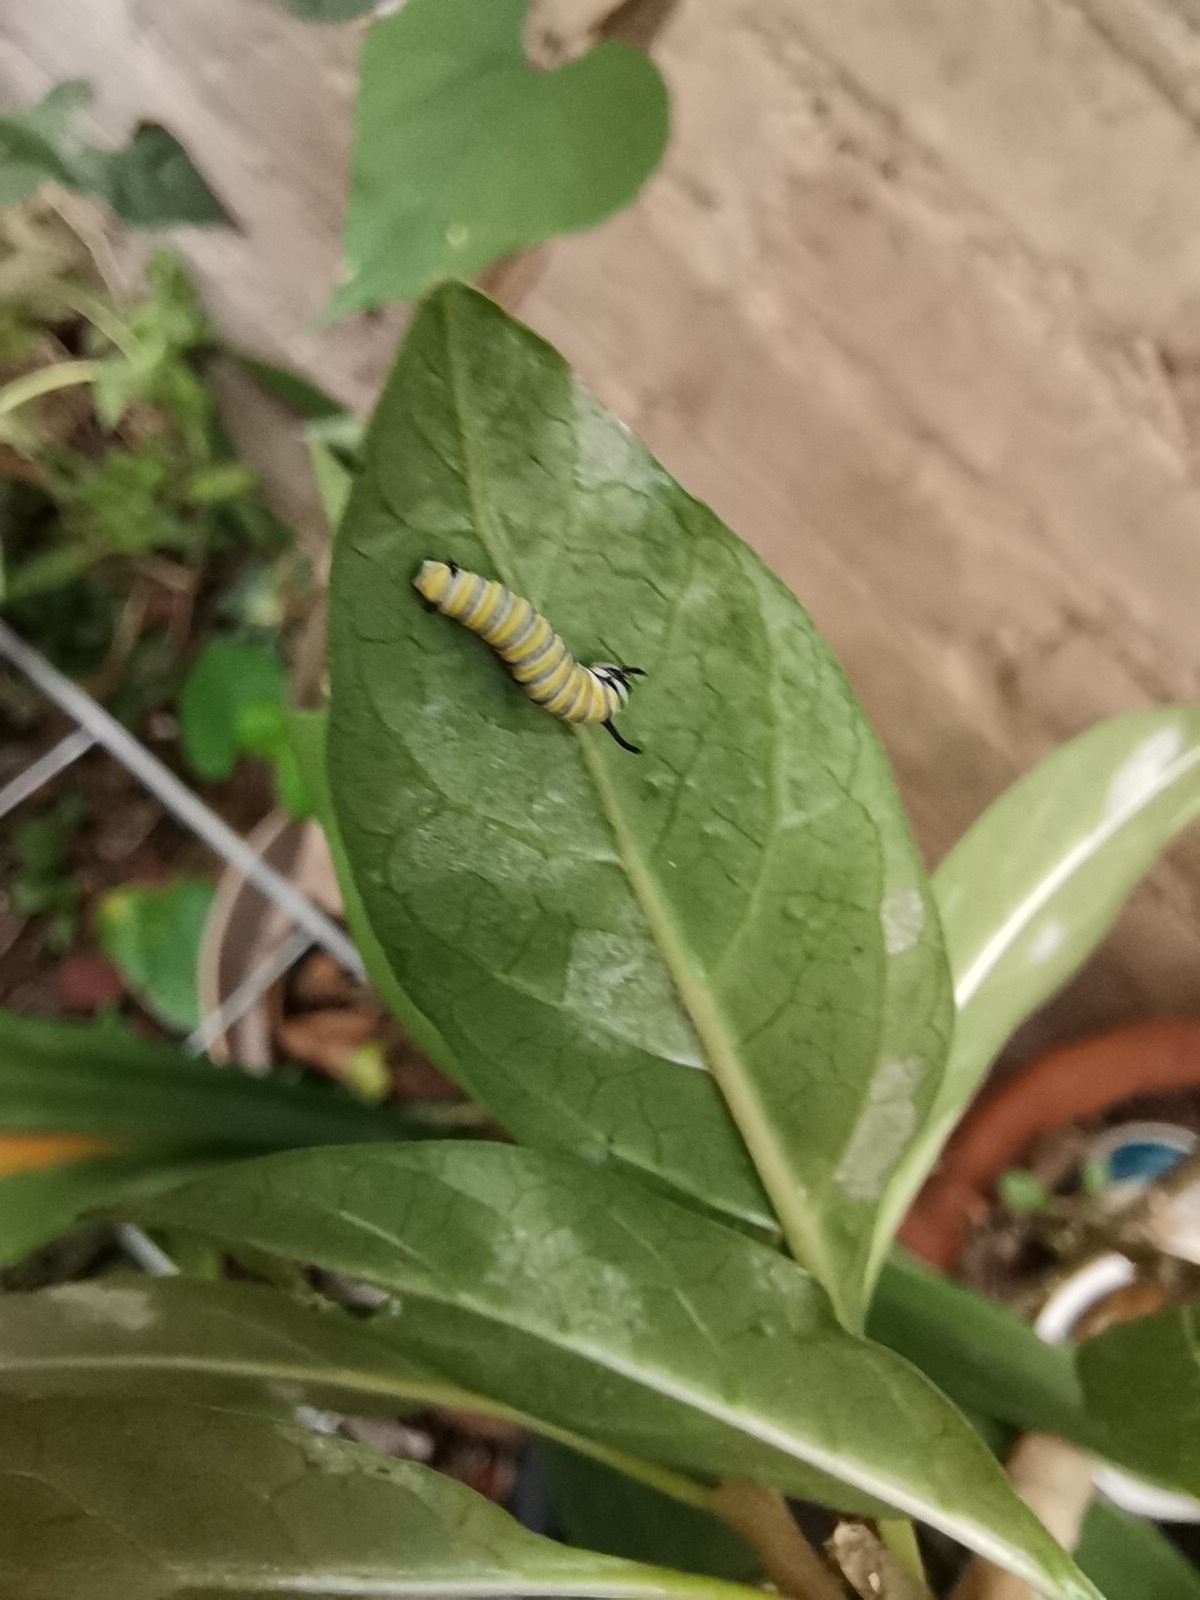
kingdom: Animalia
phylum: Arthropoda
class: Insecta
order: Lepidoptera
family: Nymphalidae
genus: Danaus
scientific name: Danaus plexippus
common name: Monarch
